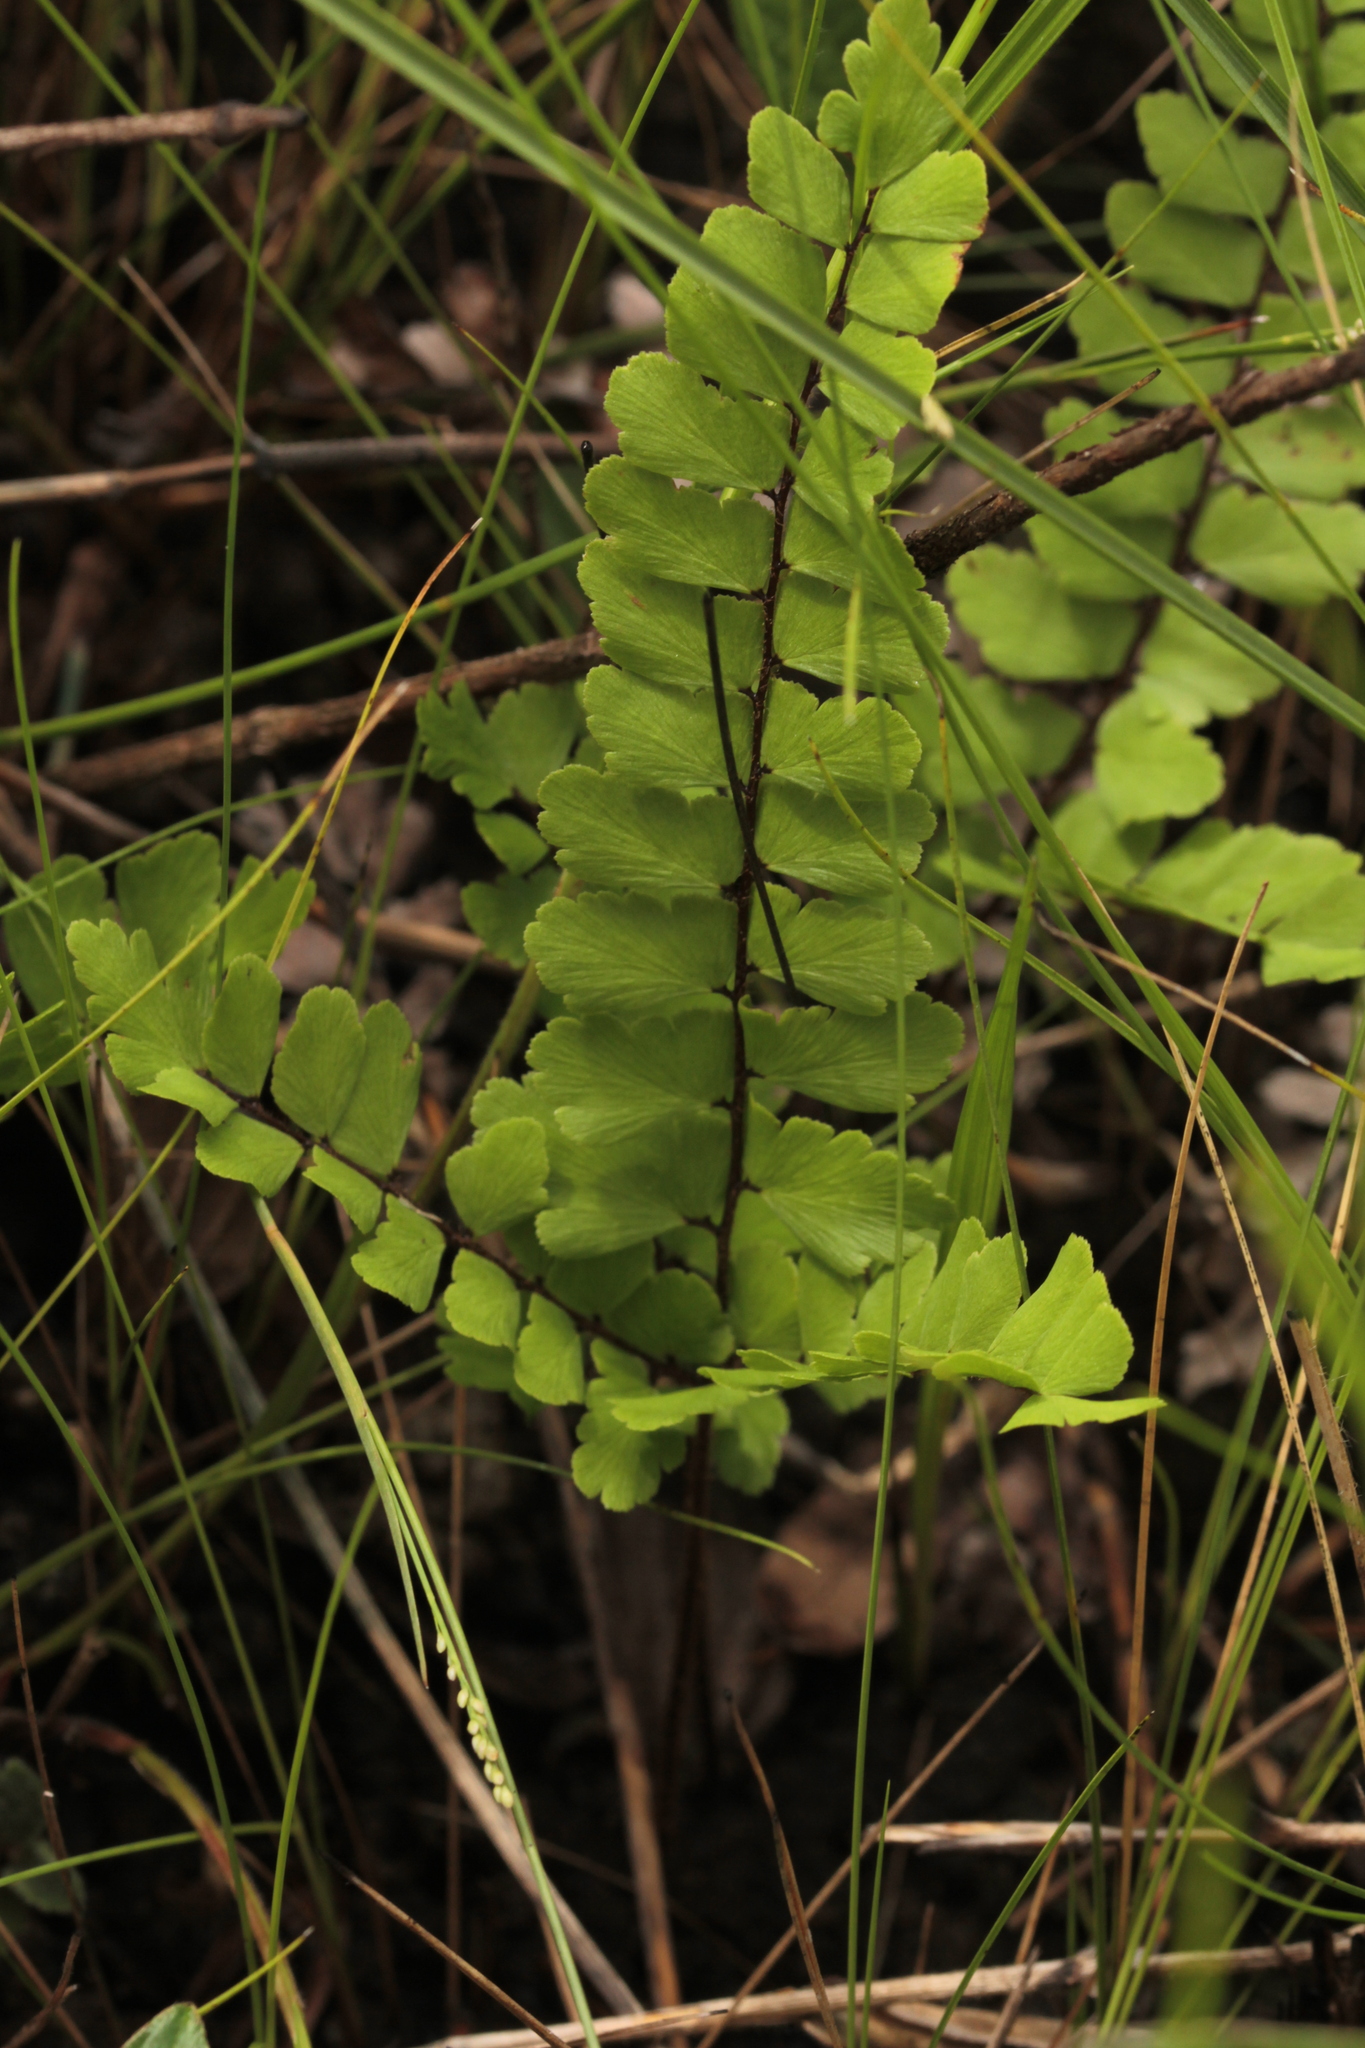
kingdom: Plantae
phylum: Tracheophyta
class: Polypodiopsida
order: Polypodiales
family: Pteridaceae
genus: Adiantum
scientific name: Adiantum serratodentatum
